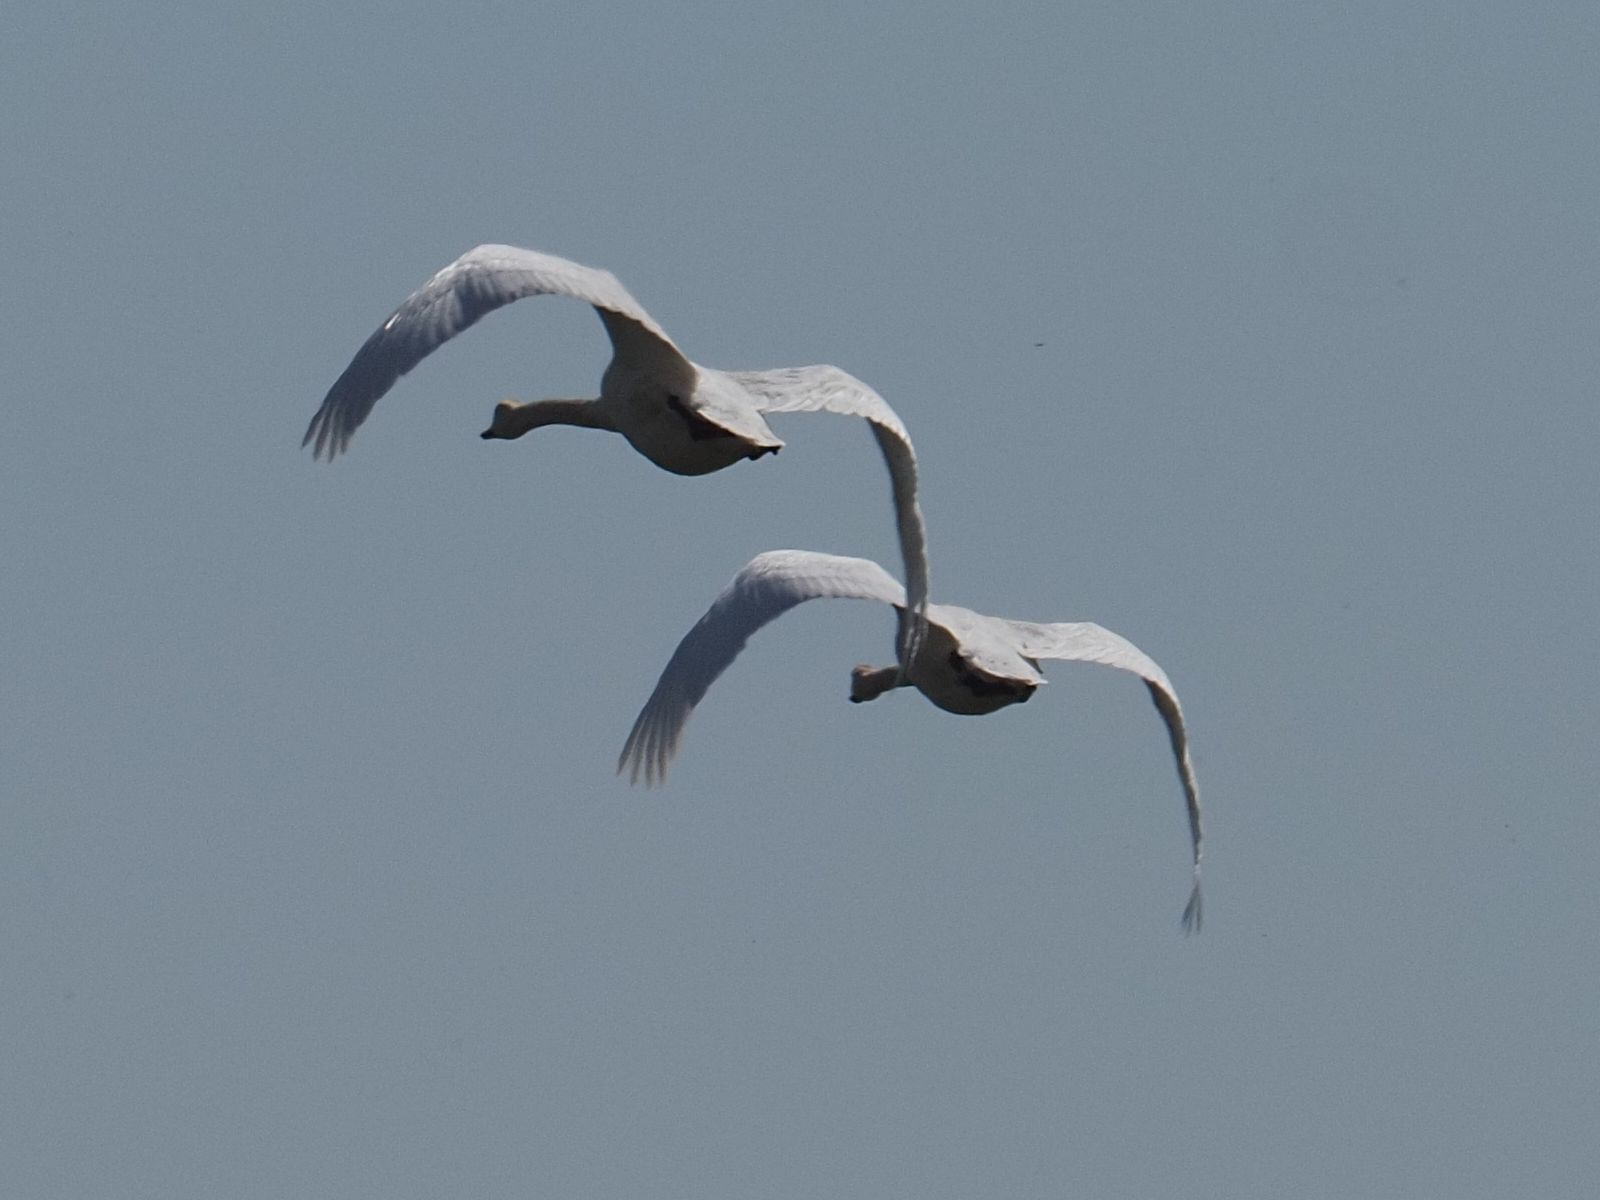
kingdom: Animalia
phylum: Chordata
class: Aves
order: Anseriformes
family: Anatidae
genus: Cygnus
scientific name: Cygnus olor
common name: Mute swan
